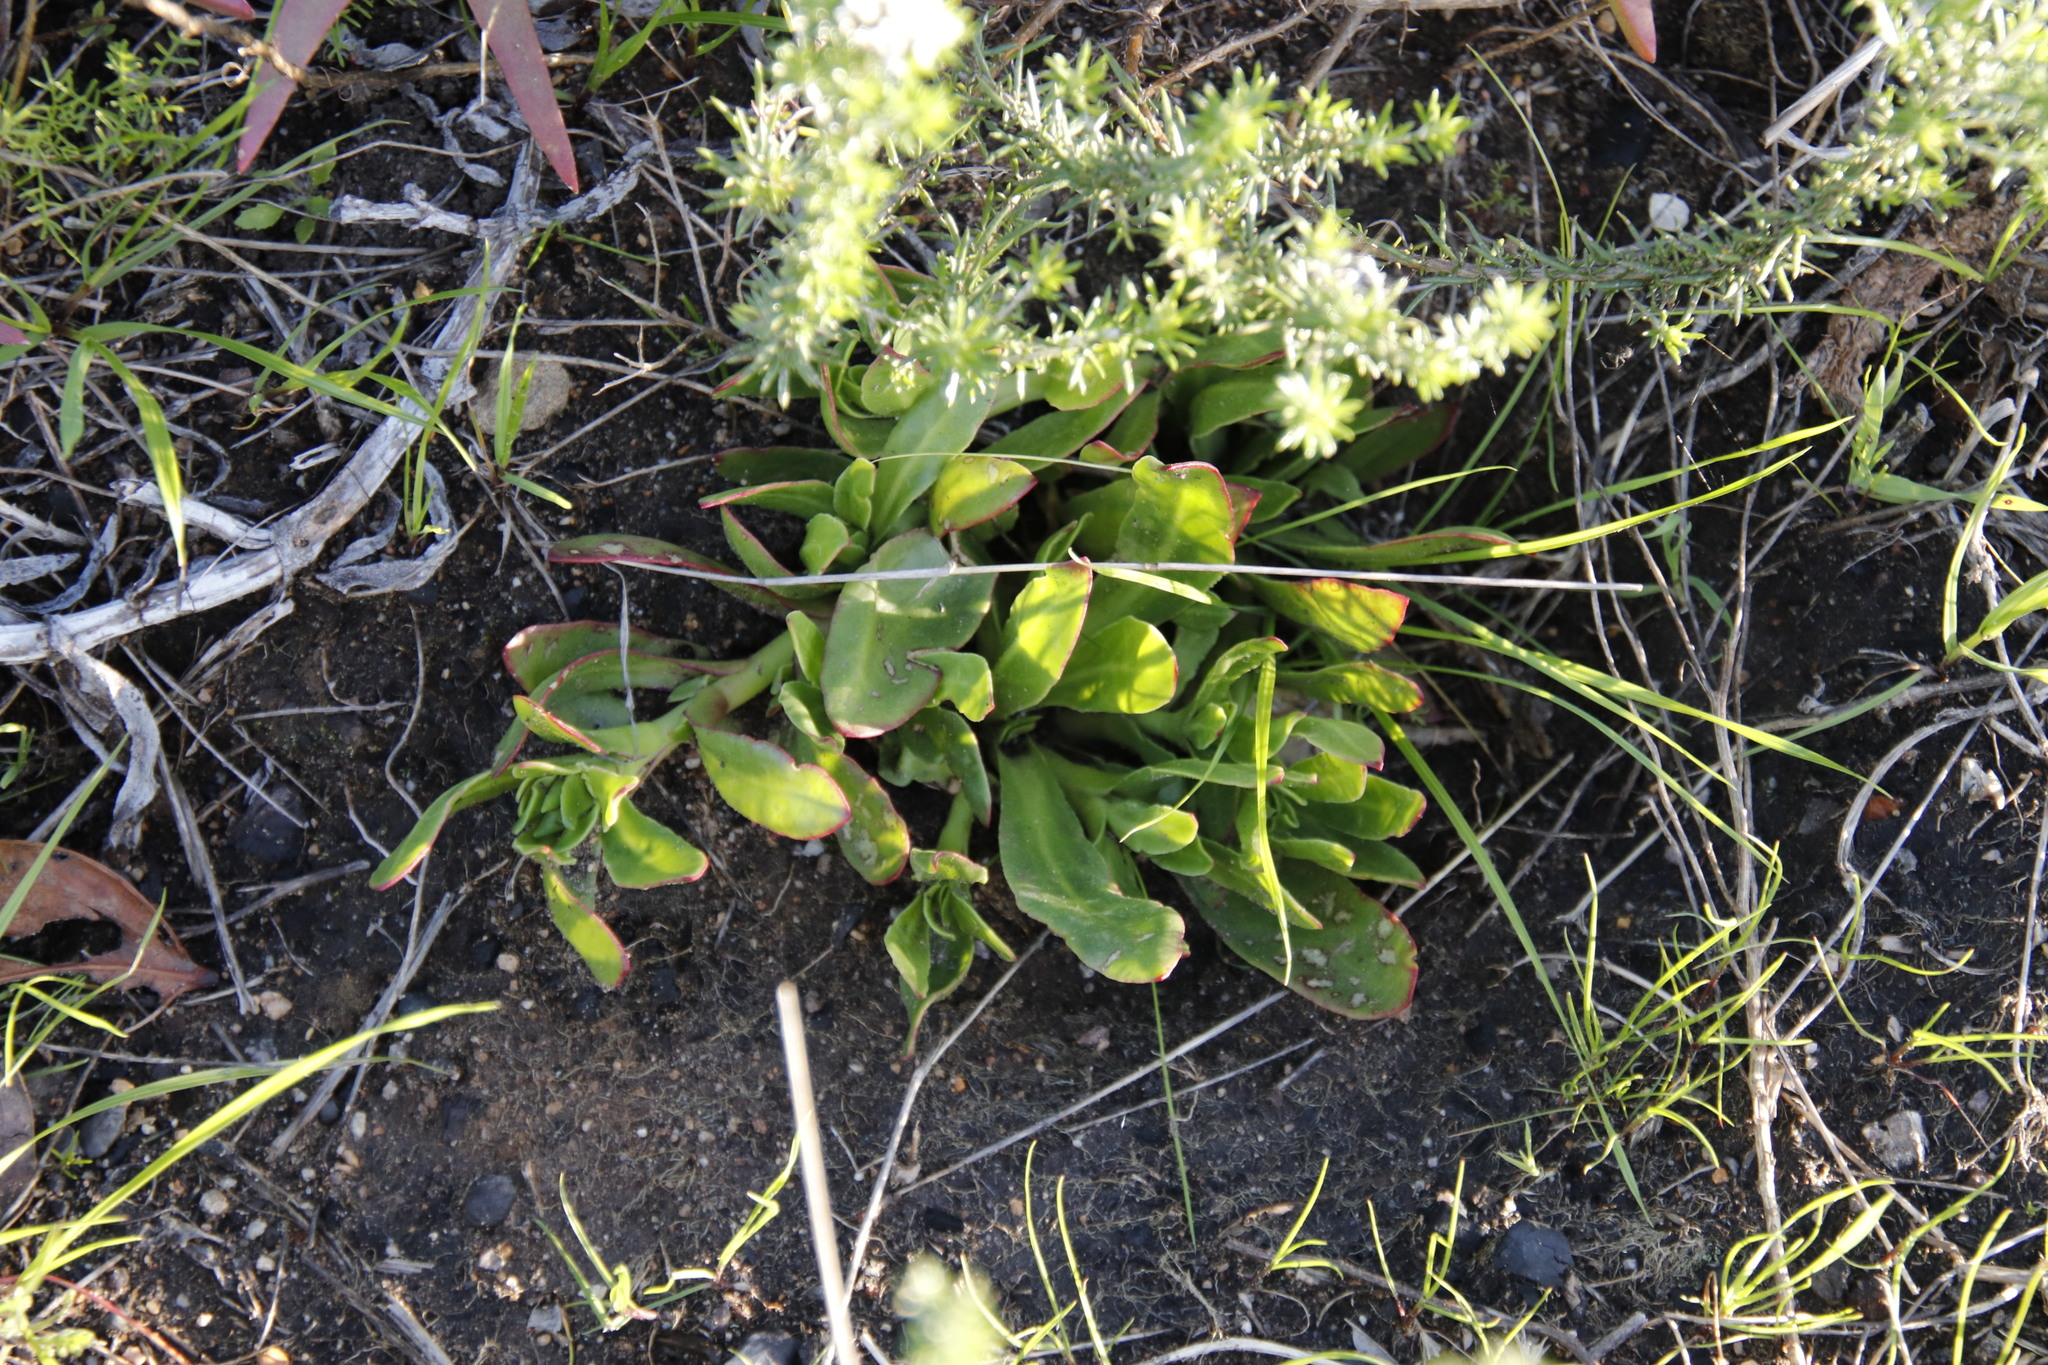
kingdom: Plantae
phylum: Tracheophyta
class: Magnoliopsida
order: Caryophyllales
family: Aizoaceae
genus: Skiatophytum
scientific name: Skiatophytum tripolium
